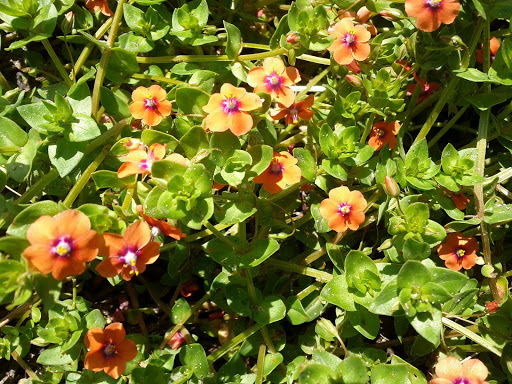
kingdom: Plantae
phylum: Tracheophyta
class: Magnoliopsida
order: Ericales
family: Primulaceae
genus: Lysimachia
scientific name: Lysimachia arvensis
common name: Scarlet pimpernel
